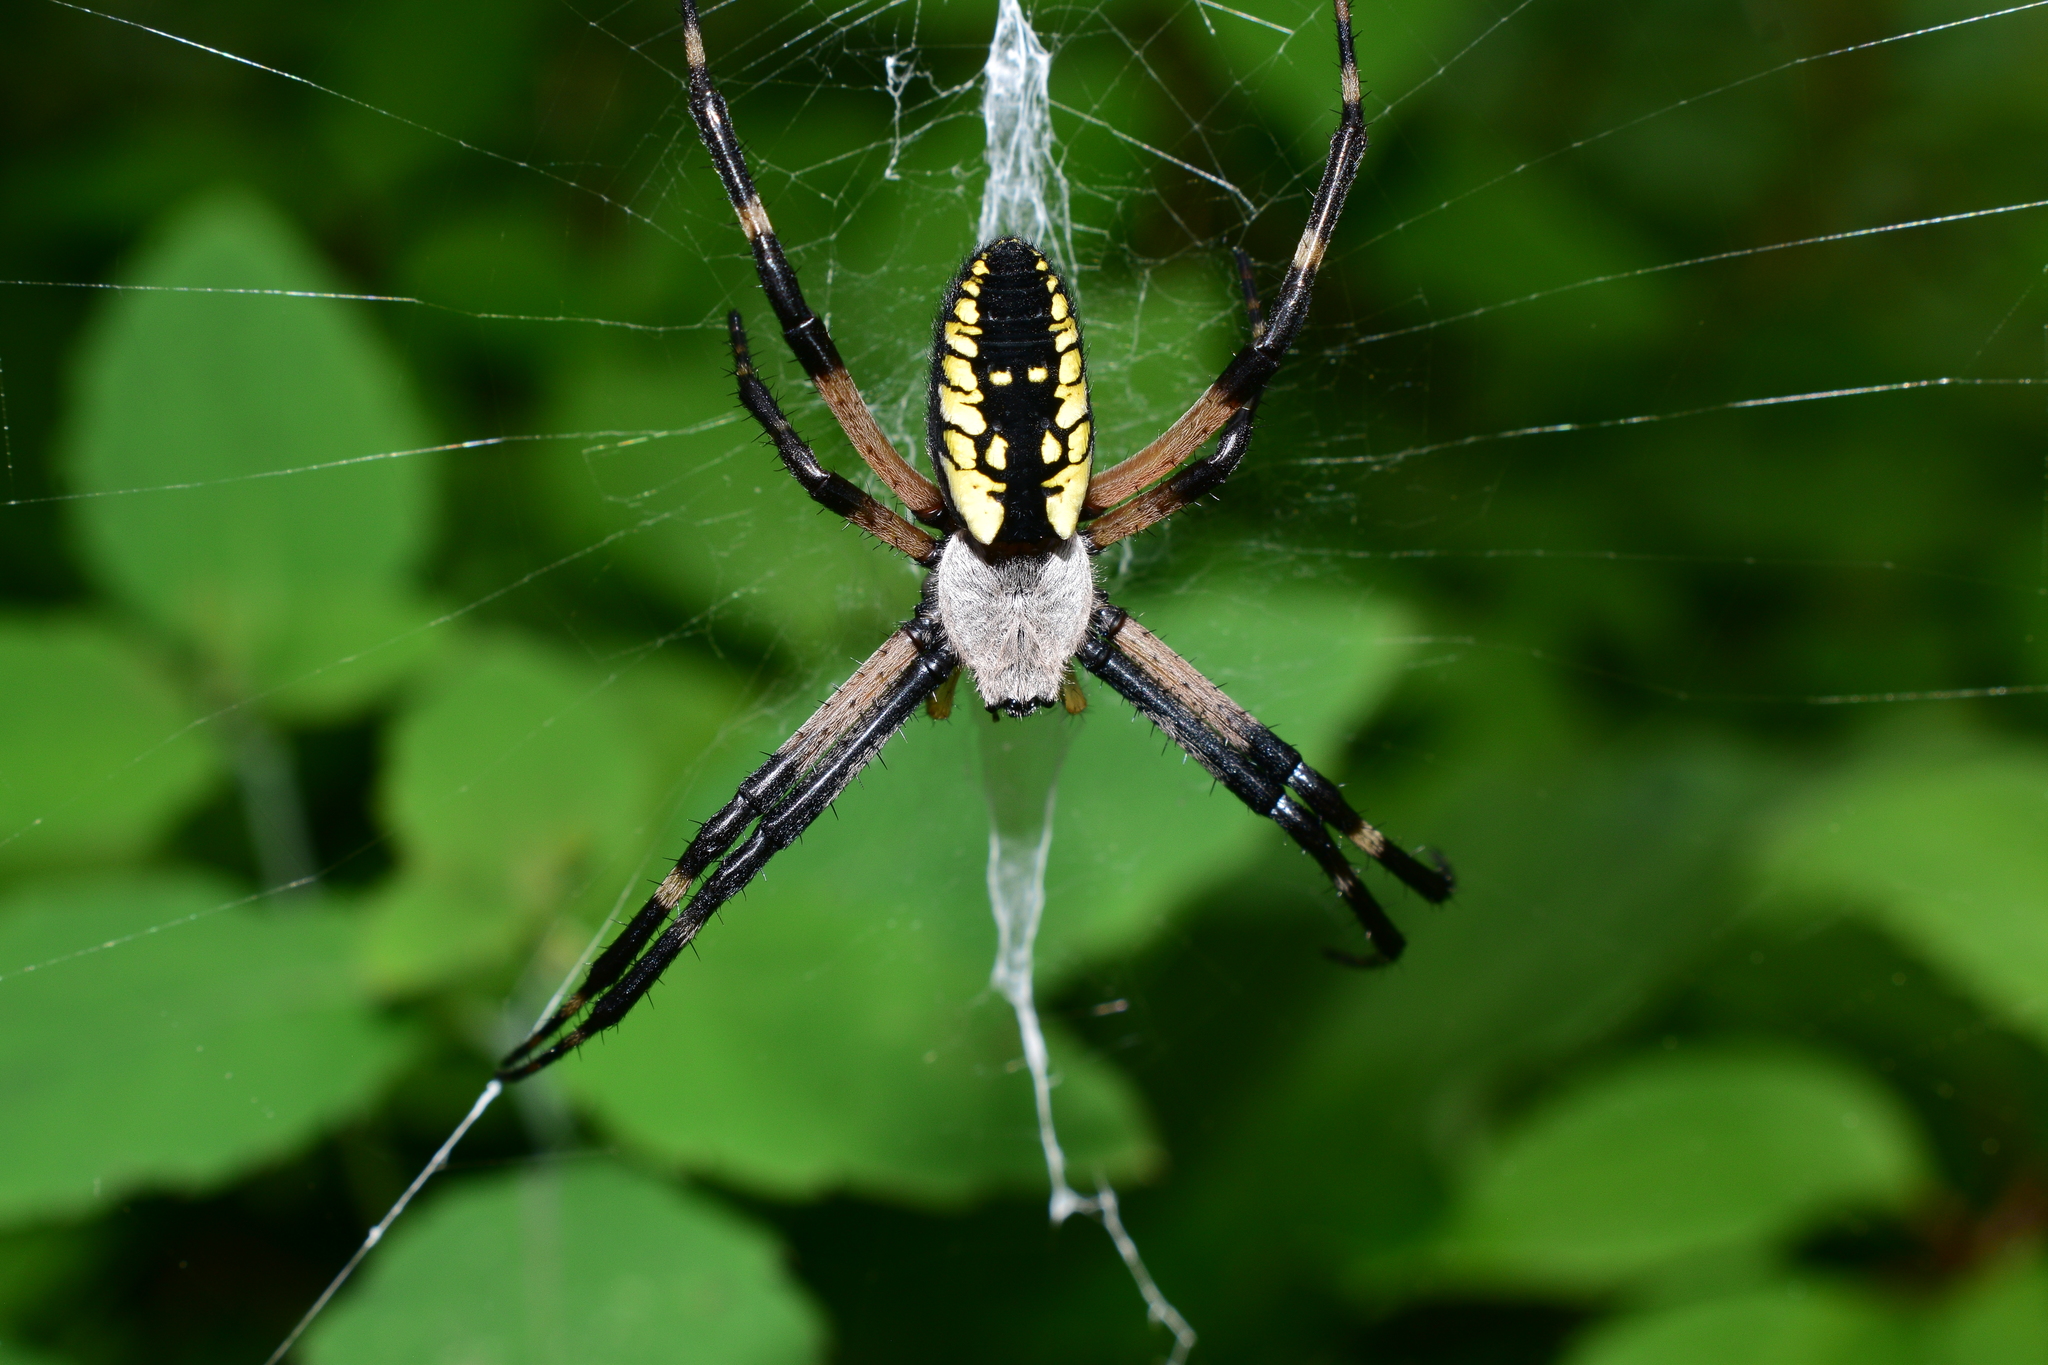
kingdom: Animalia
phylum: Arthropoda
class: Arachnida
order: Araneae
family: Araneidae
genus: Argiope
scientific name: Argiope aurantia
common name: Orb weavers
